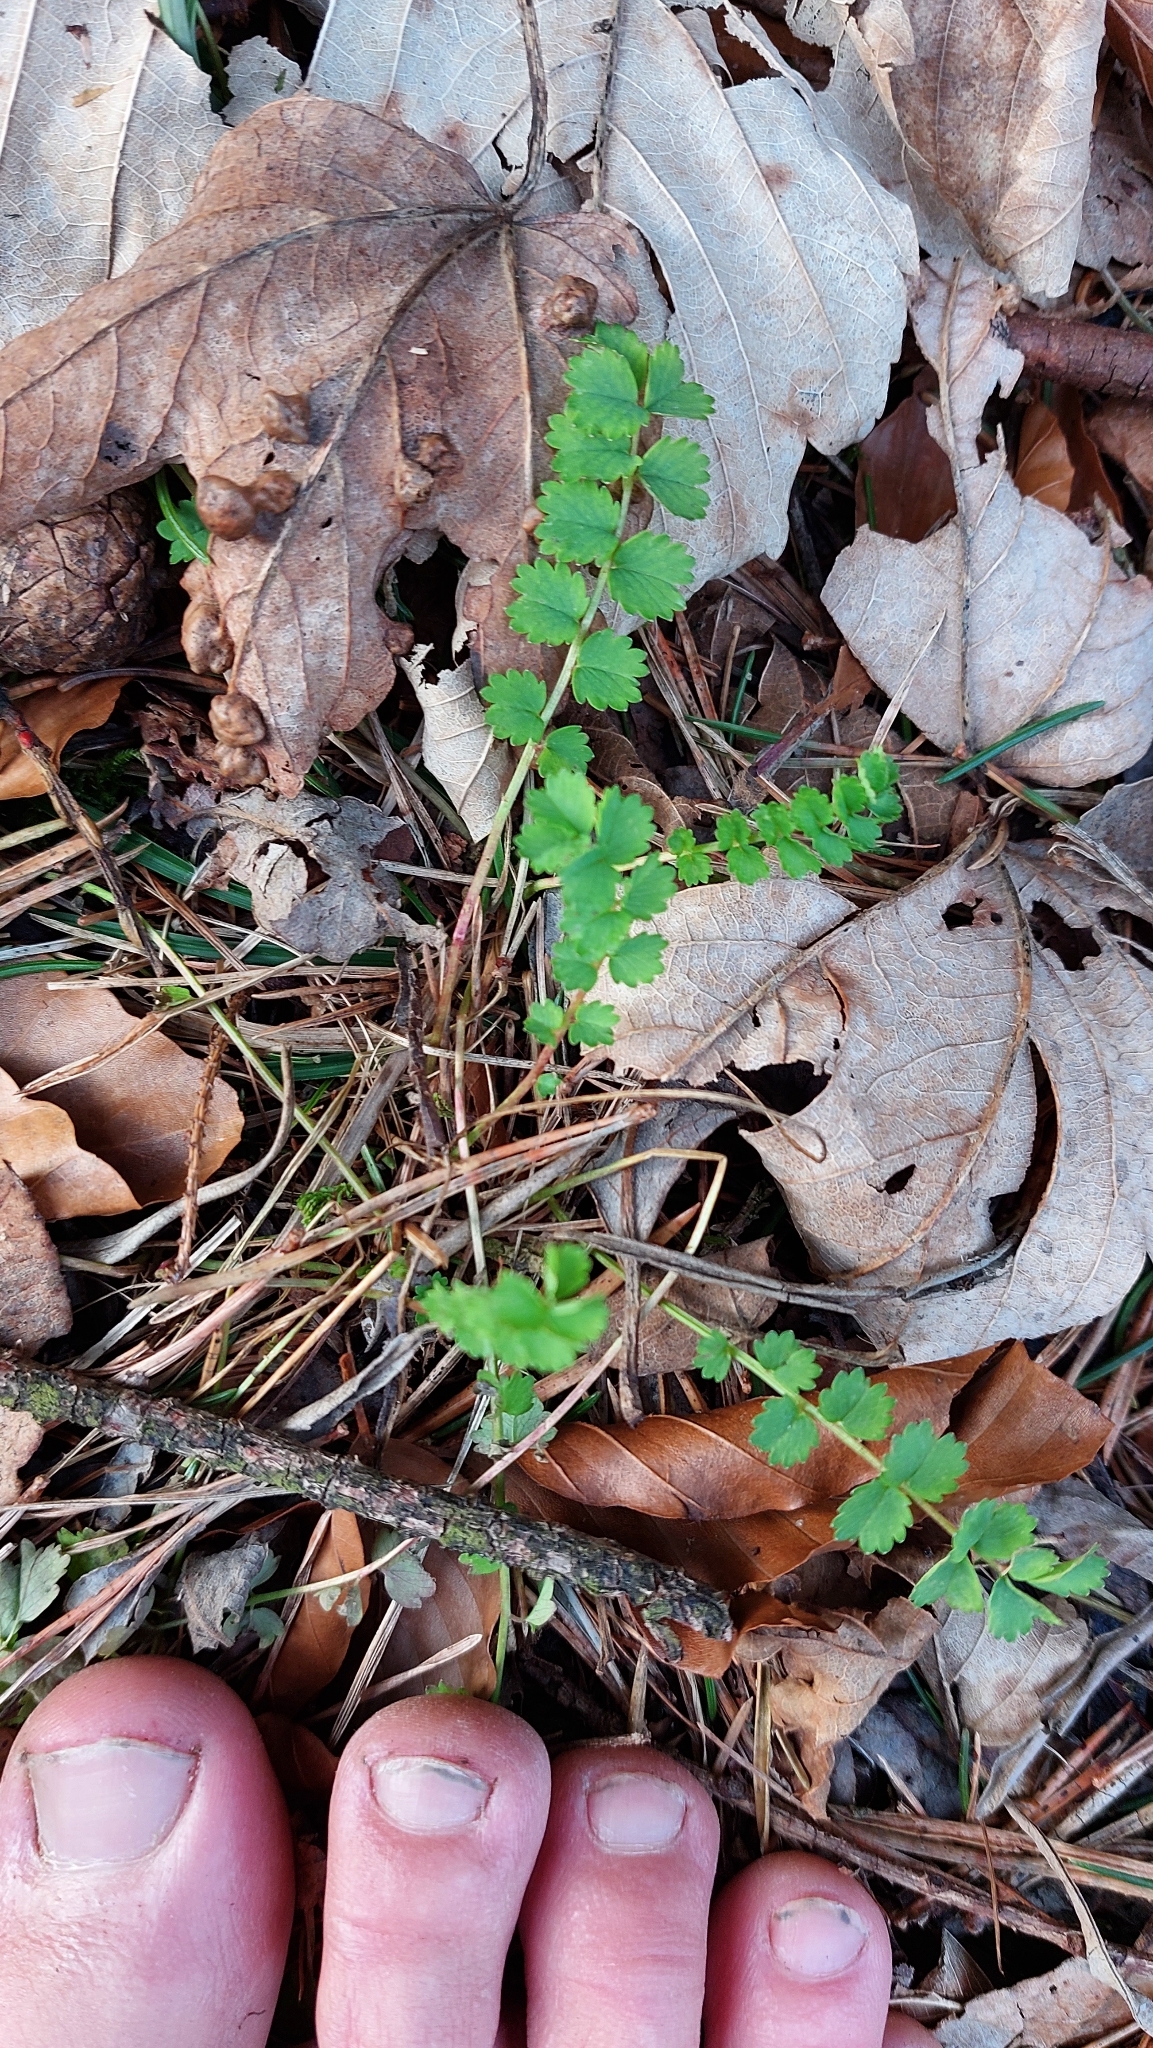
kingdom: Plantae
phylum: Tracheophyta
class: Magnoliopsida
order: Rosales
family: Rosaceae
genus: Poterium
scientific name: Poterium sanguisorba
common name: Salad burnet
